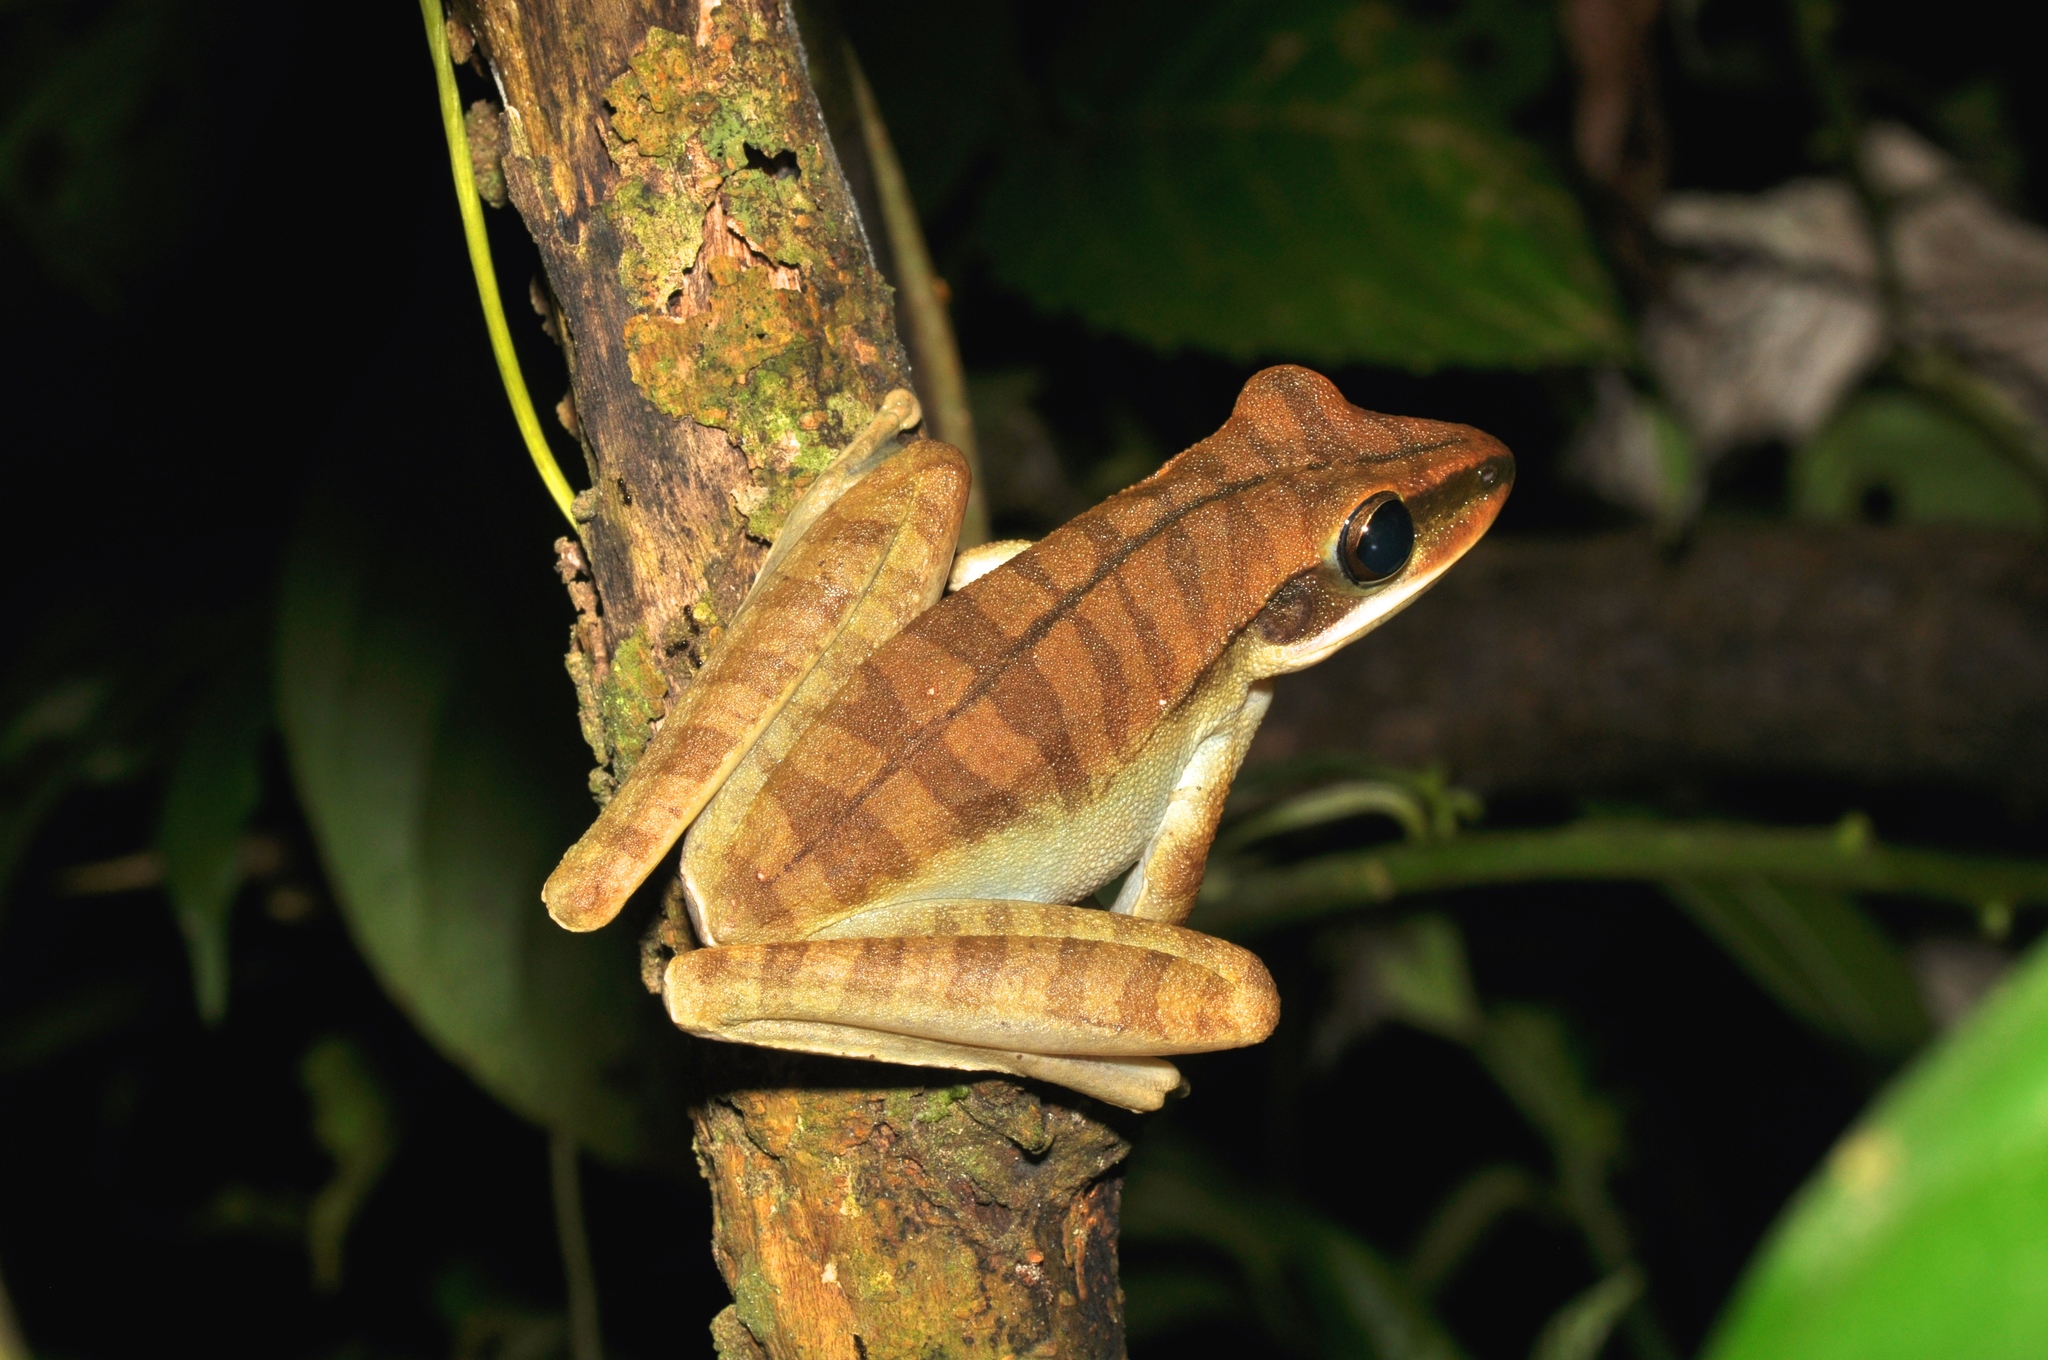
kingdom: Animalia
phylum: Chordata
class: Amphibia
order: Anura
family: Hylidae
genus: Boana
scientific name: Boana lanciformis
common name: Rana lanceolada commún
